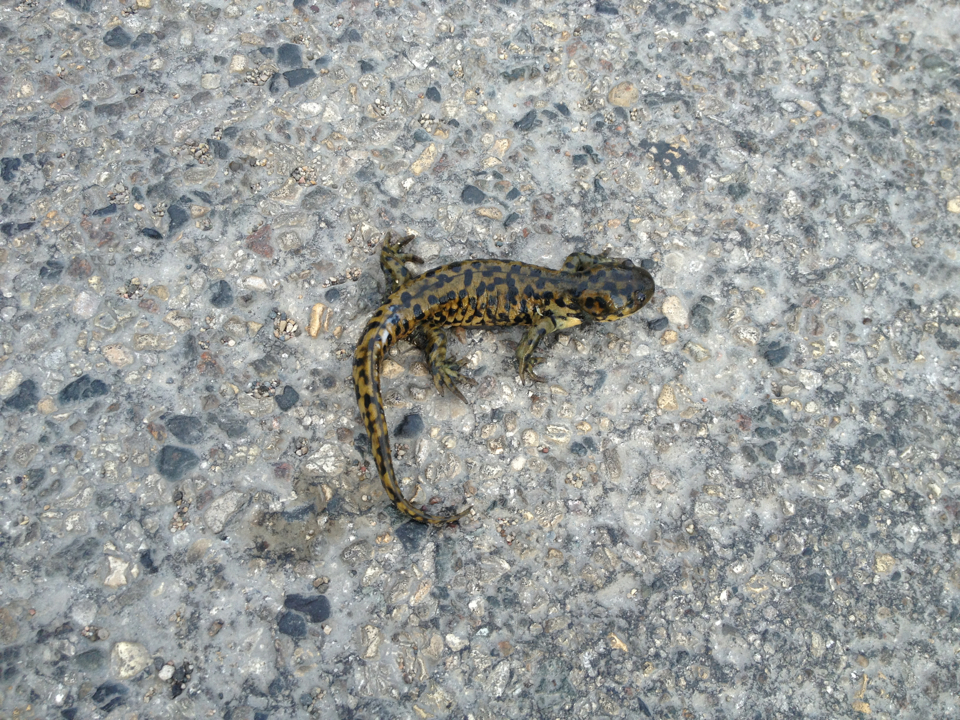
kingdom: Animalia
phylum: Chordata
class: Amphibia
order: Caudata
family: Ambystomatidae
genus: Ambystoma
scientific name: Ambystoma mavortium
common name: Western tiger salamander
